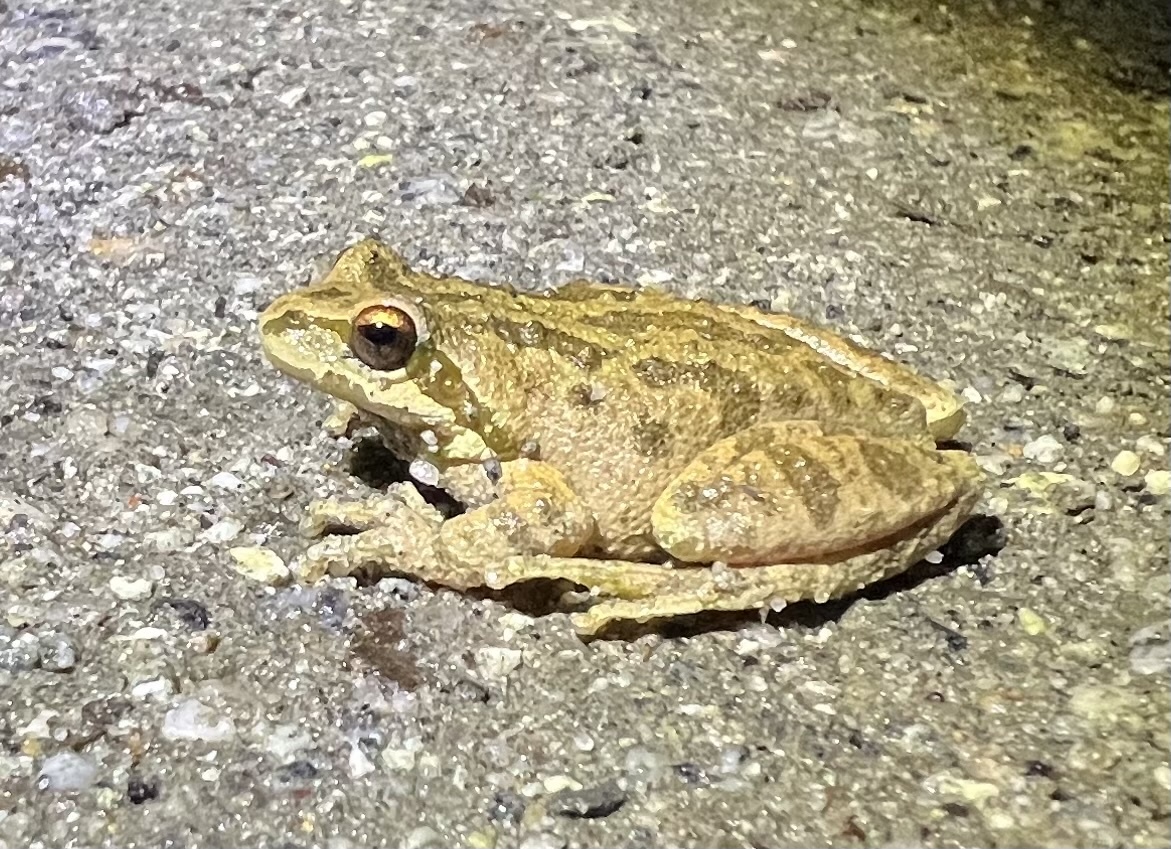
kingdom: Animalia
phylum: Chordata
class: Amphibia
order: Anura
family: Hylidae
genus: Pseudacris
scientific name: Pseudacris regilla
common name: Pacific chorus frog
